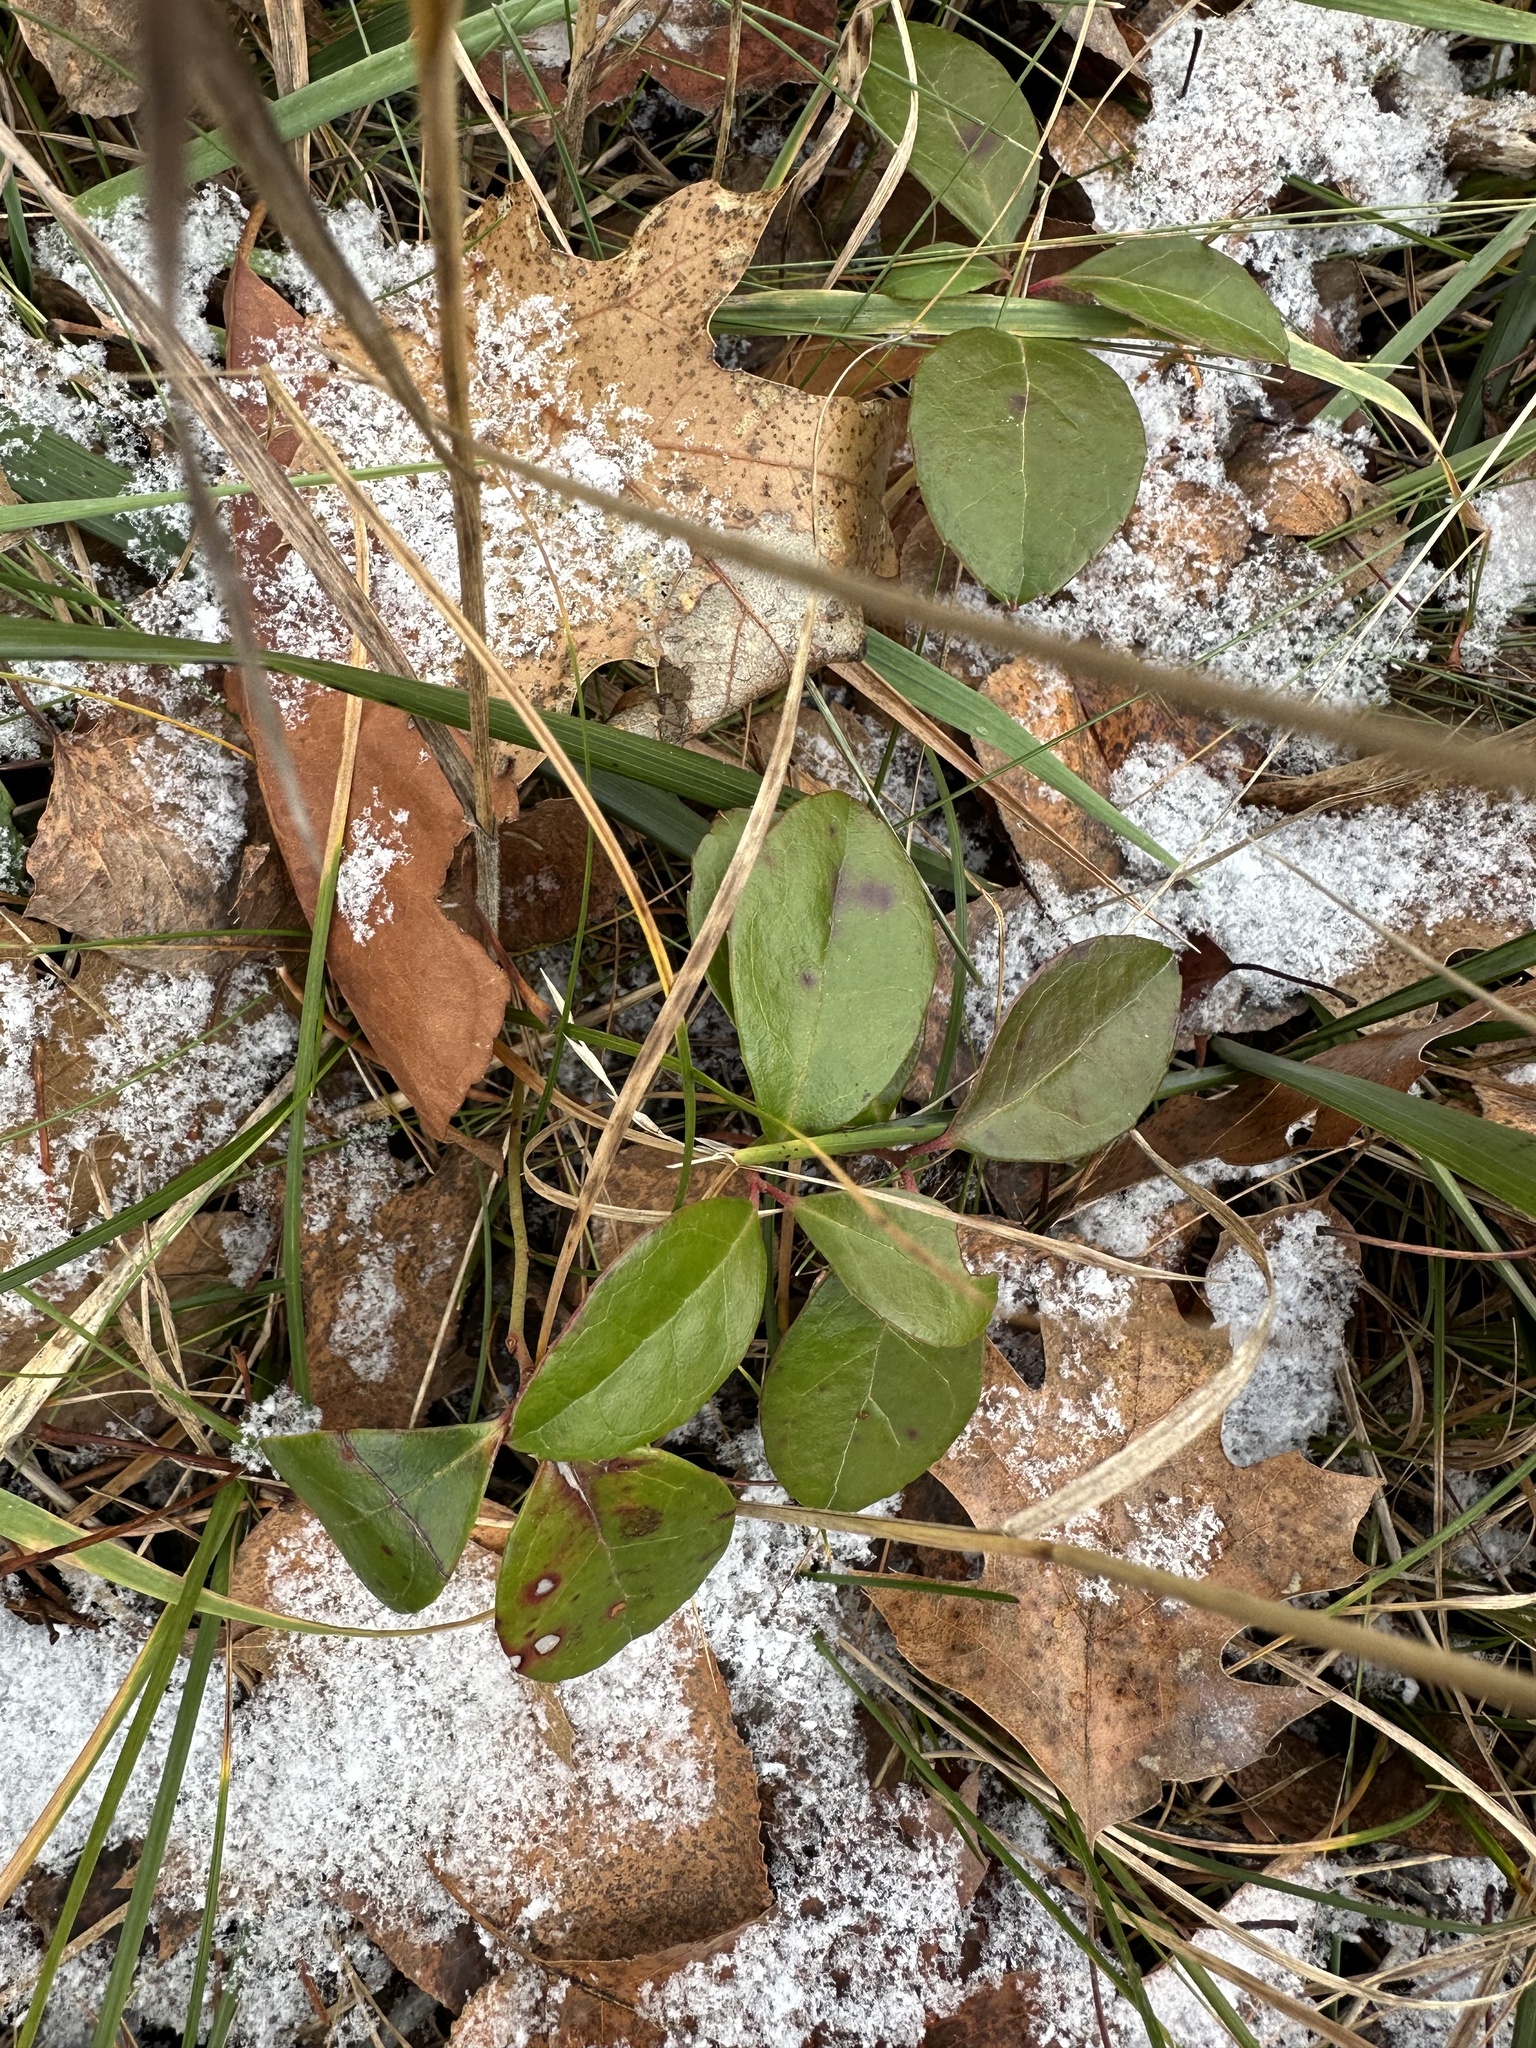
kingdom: Plantae
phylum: Tracheophyta
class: Magnoliopsida
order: Ericales
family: Ericaceae
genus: Gaultheria
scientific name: Gaultheria procumbens
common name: Checkerberry
